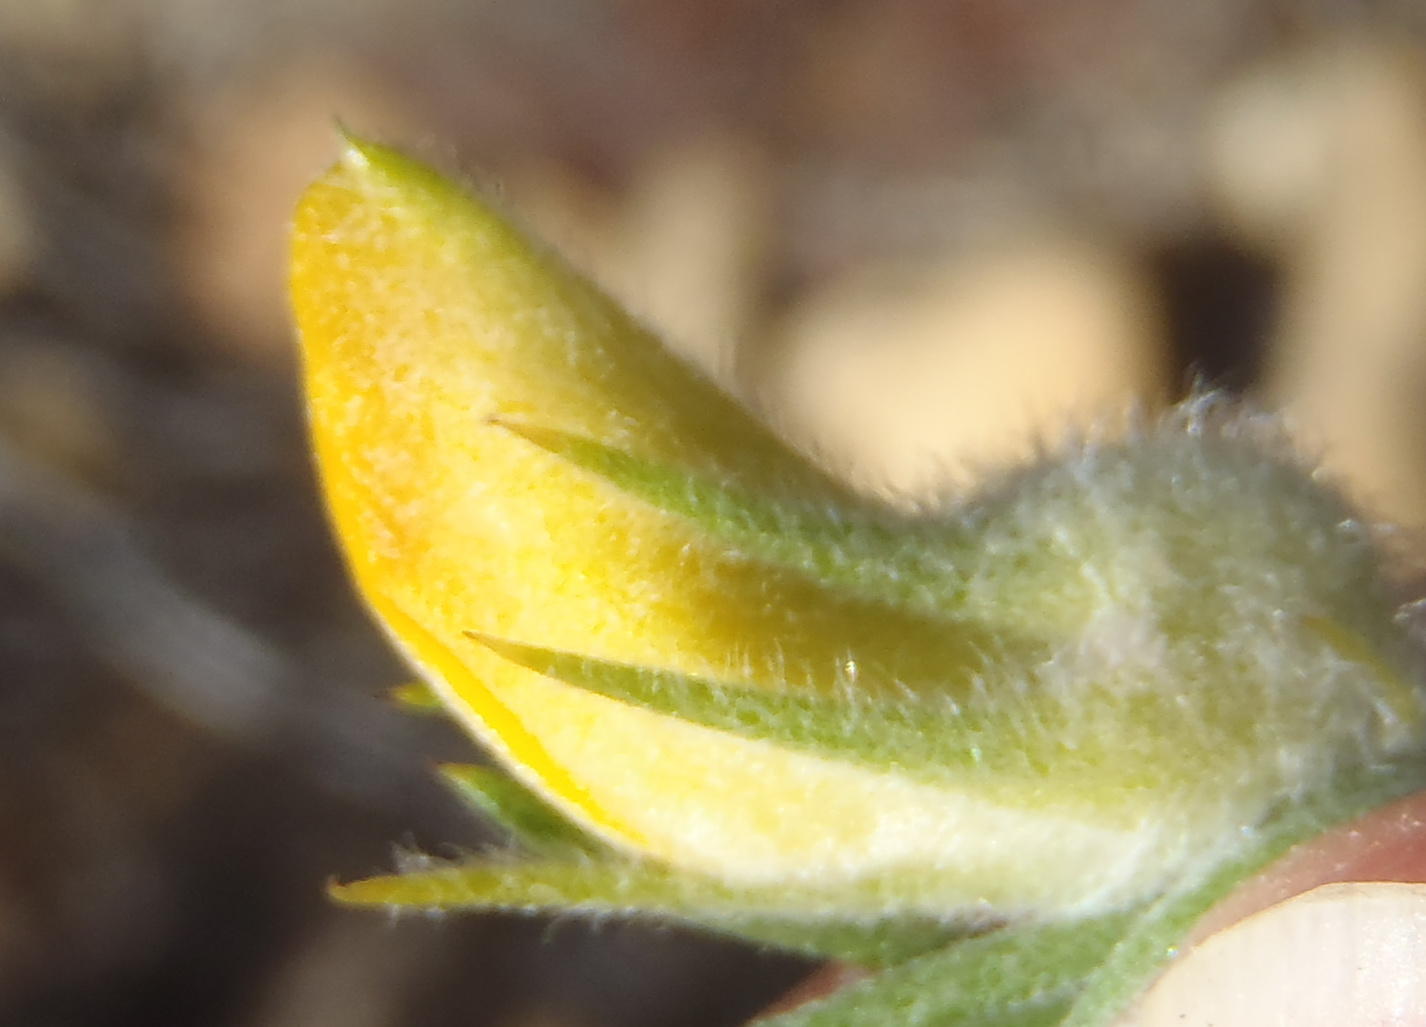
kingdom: Plantae
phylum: Tracheophyta
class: Magnoliopsida
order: Fabales
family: Fabaceae
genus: Aspalathus
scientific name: Aspalathus acanthes
